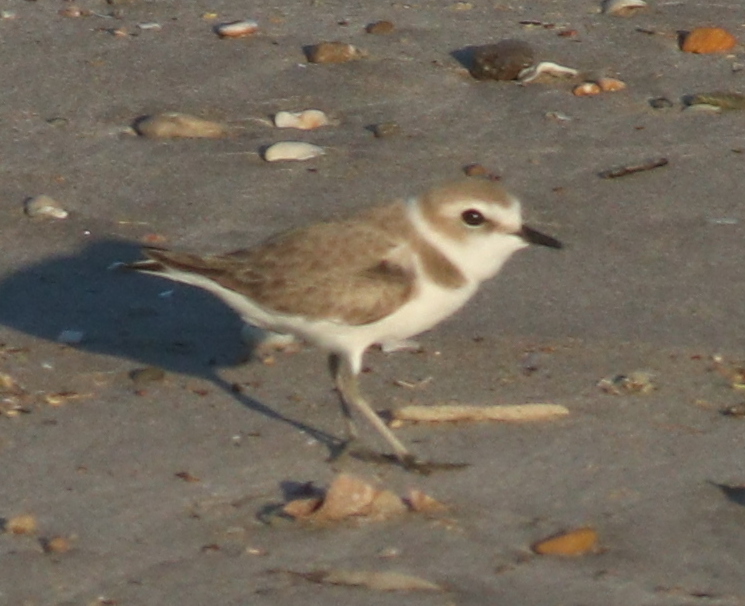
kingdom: Animalia
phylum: Chordata
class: Aves
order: Charadriiformes
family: Charadriidae
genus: Charadrius
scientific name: Charadrius alexandrinus
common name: Kentish plover
